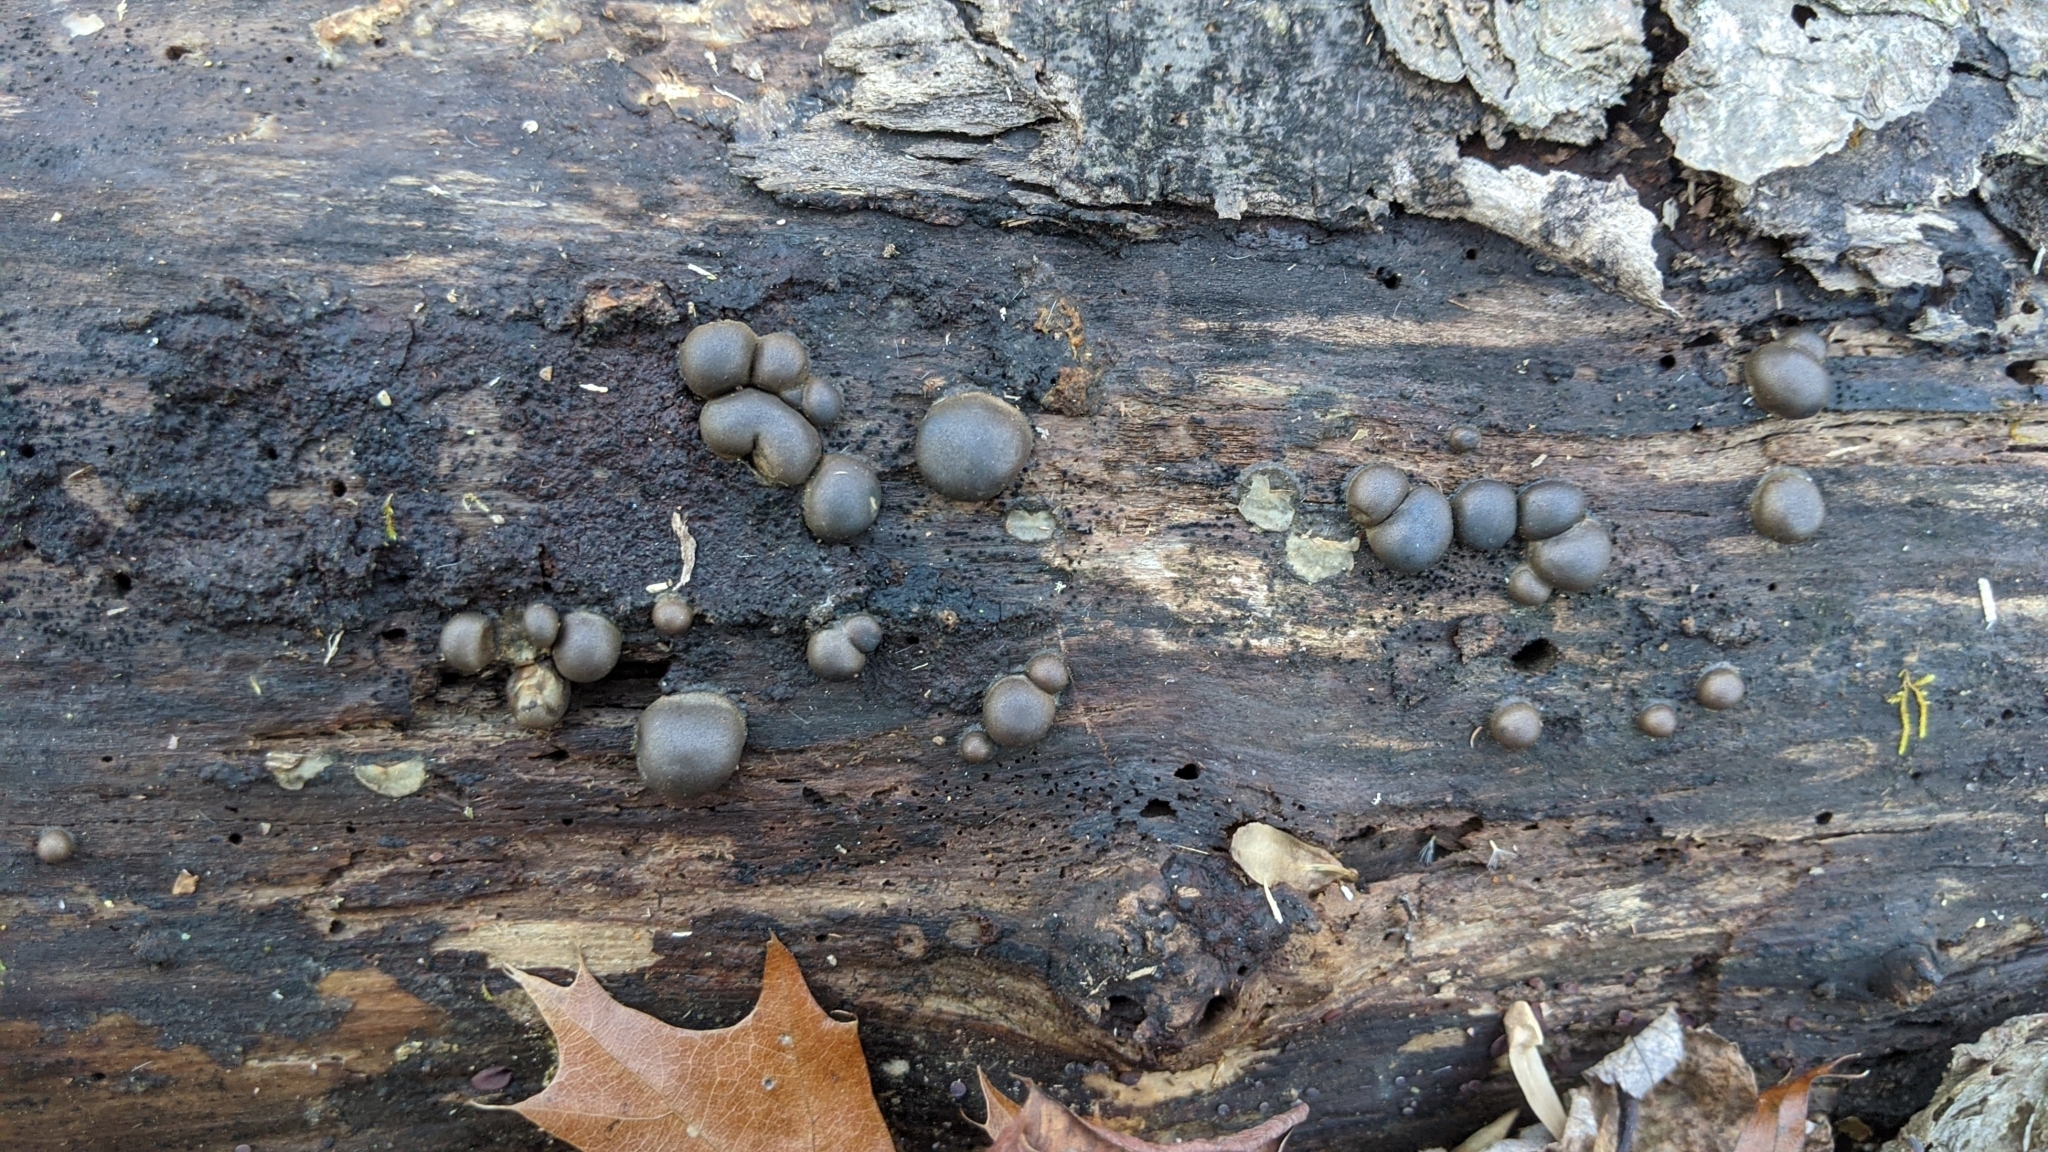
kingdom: Protozoa
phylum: Mycetozoa
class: Myxomycetes
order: Cribrariales
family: Tubiferaceae
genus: Lycogala
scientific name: Lycogala epidendrum
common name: Wolf's milk
